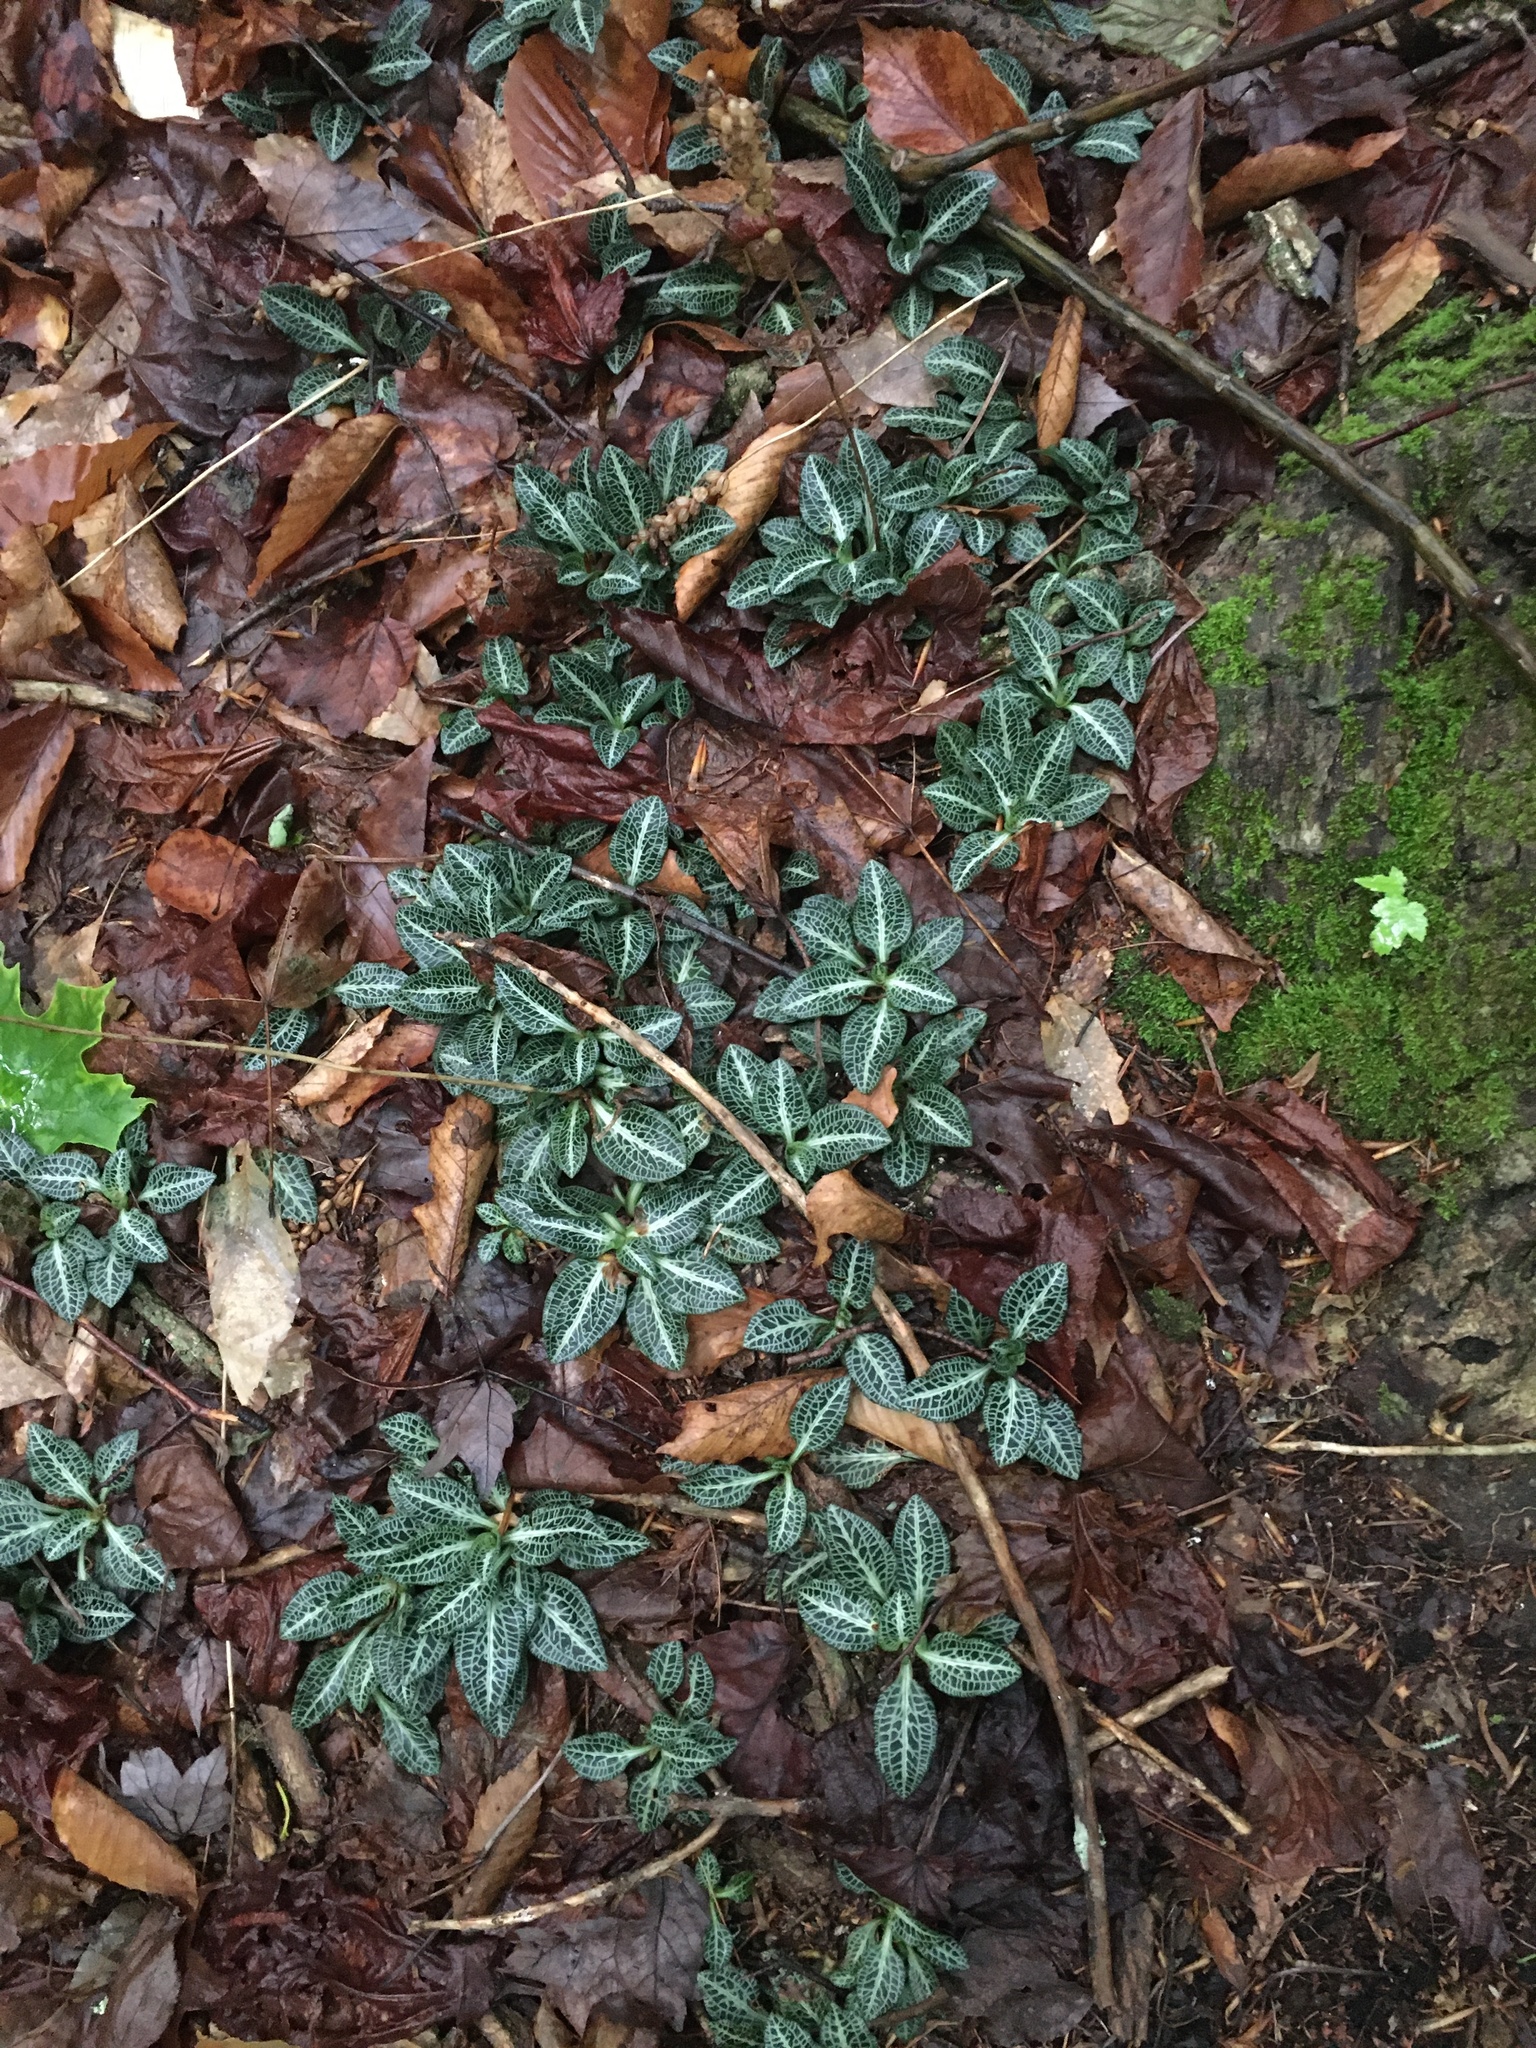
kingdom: Plantae
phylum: Tracheophyta
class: Liliopsida
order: Asparagales
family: Orchidaceae
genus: Goodyera
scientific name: Goodyera pubescens
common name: Downy rattlesnake-plantain
